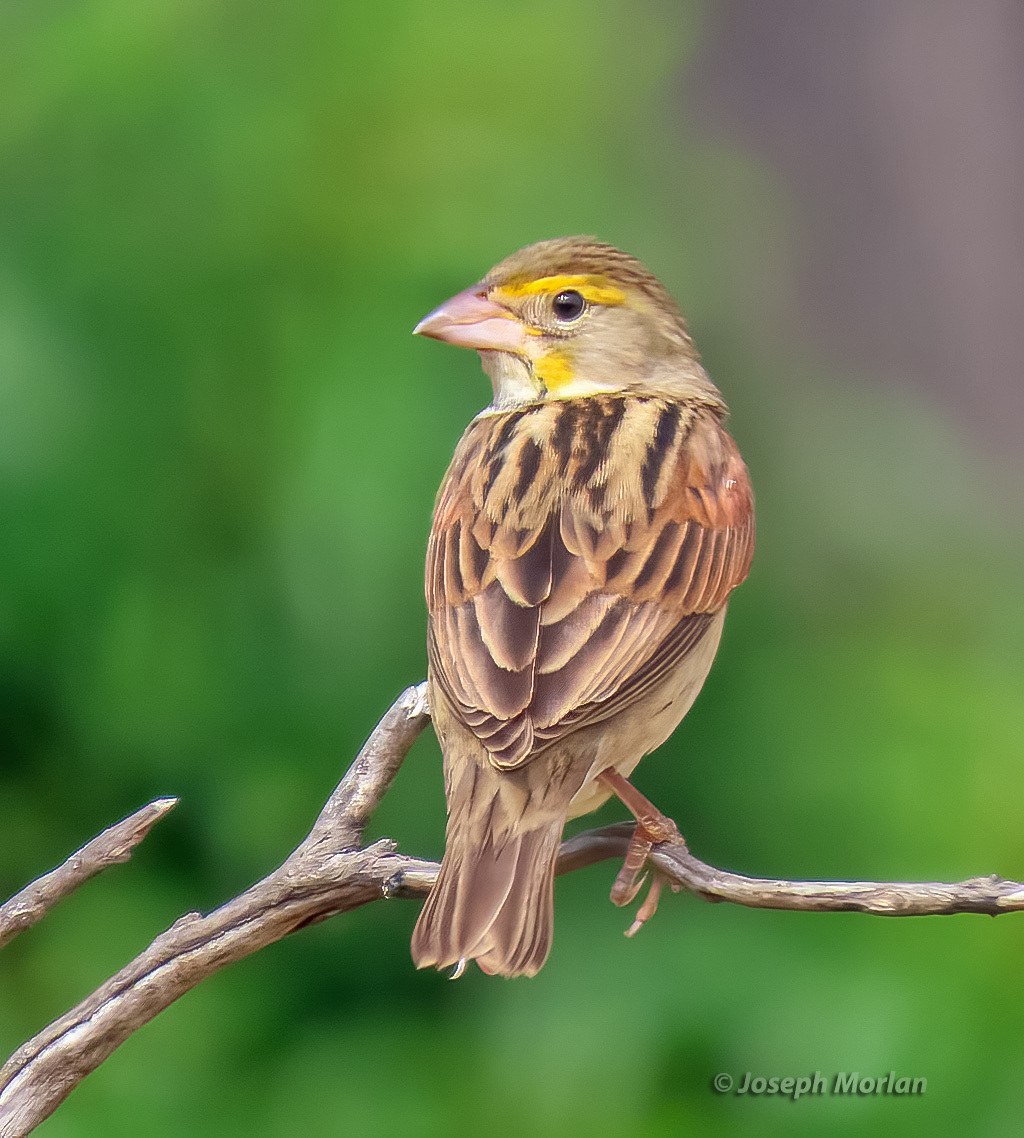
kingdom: Animalia
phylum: Chordata
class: Aves
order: Passeriformes
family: Cardinalidae
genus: Spiza
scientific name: Spiza americana
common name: Dickcissel
